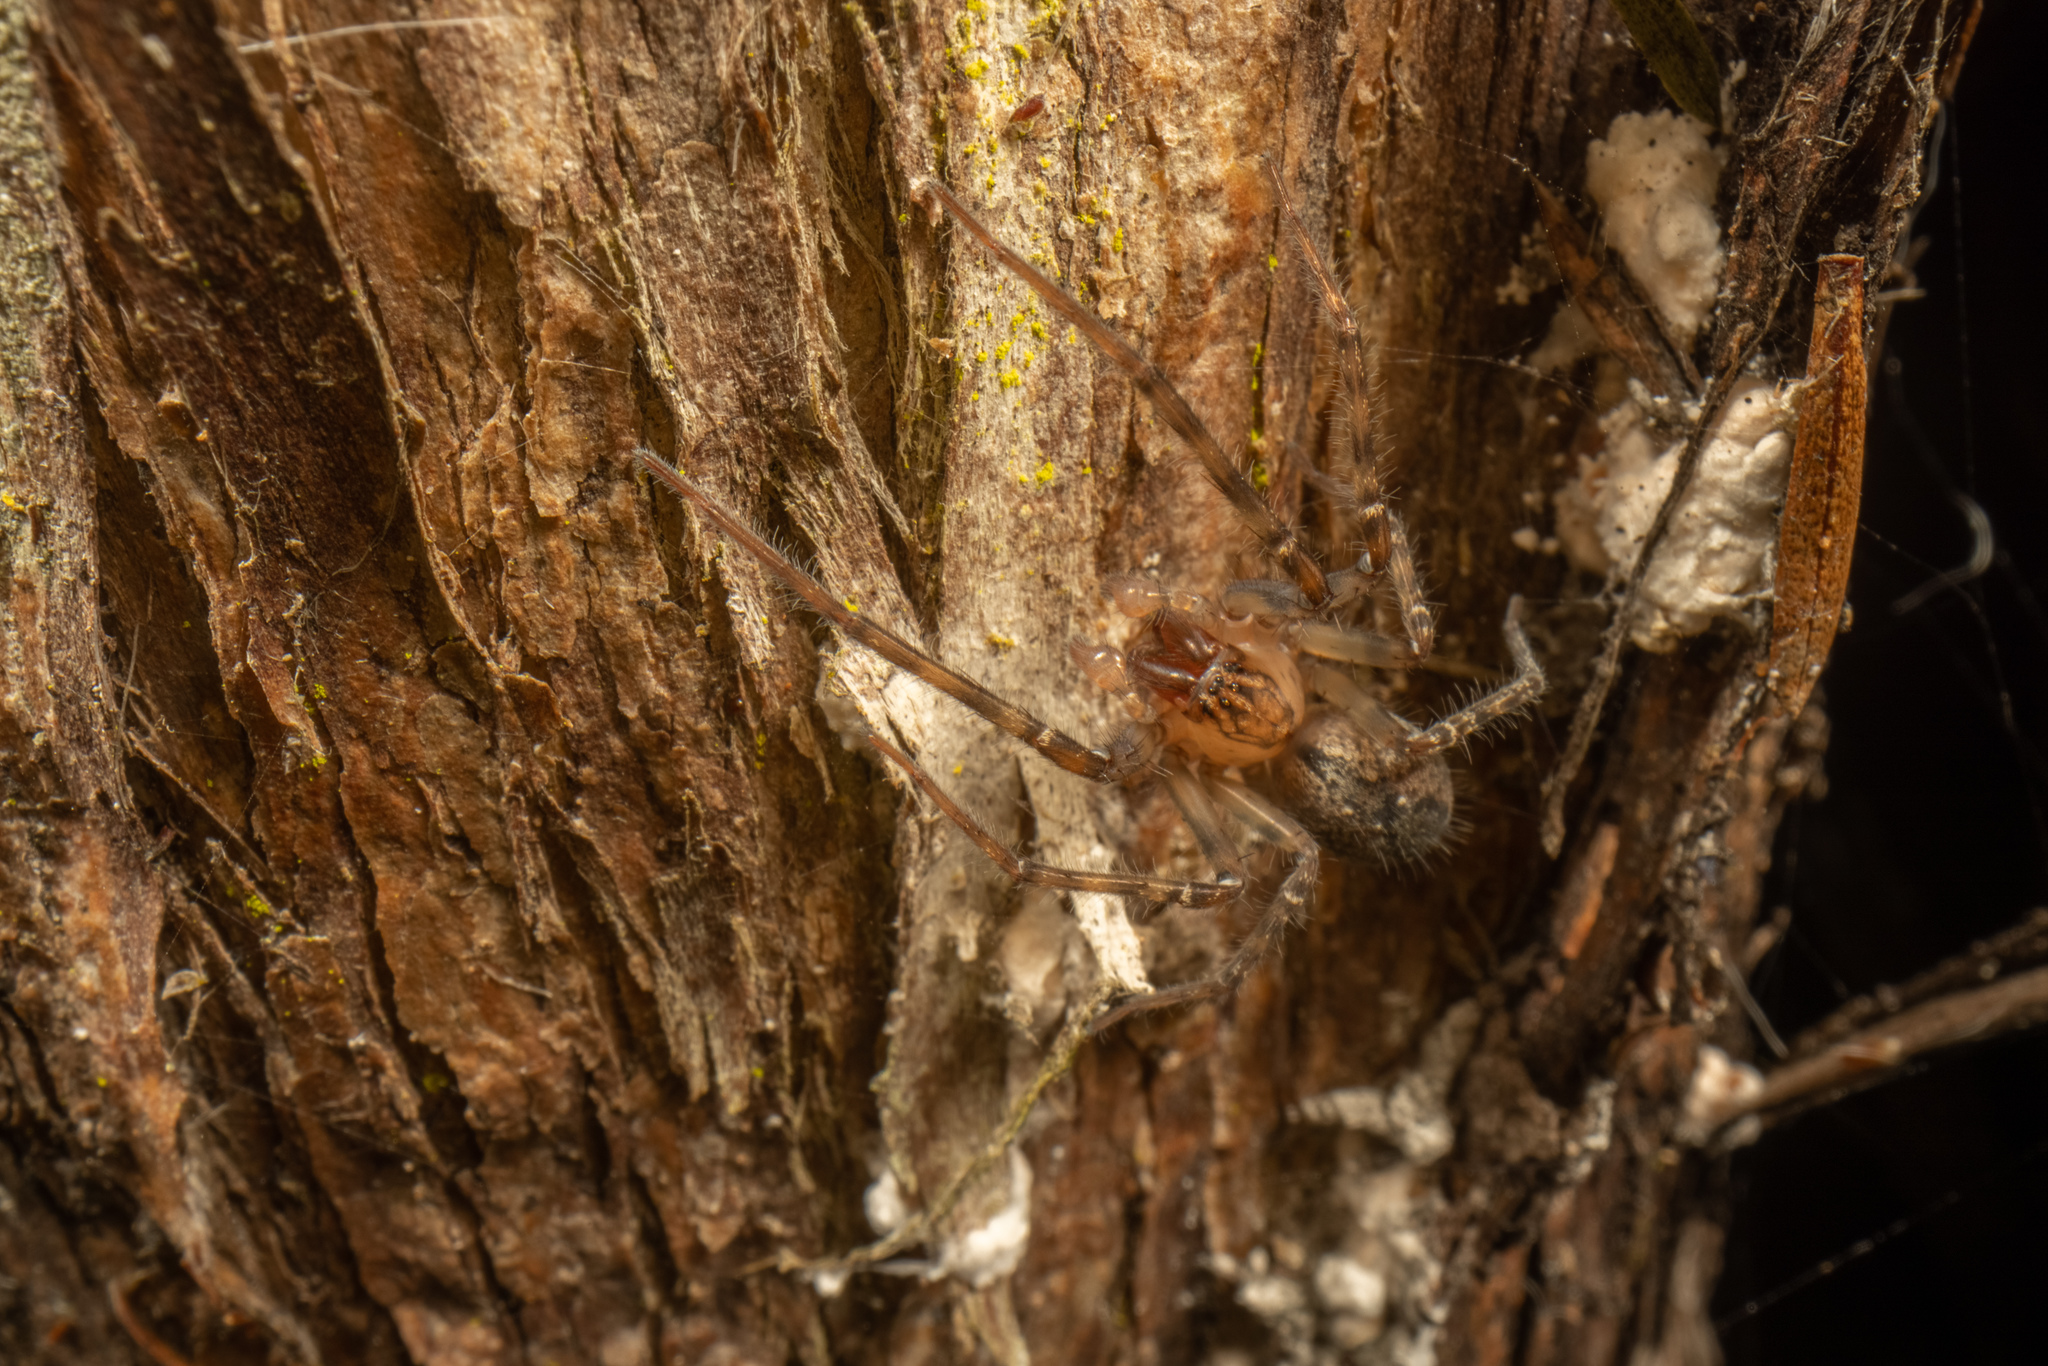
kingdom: Animalia
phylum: Arthropoda
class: Arachnida
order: Araneae
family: Desidae
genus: Nuisiana
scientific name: Nuisiana arboris
